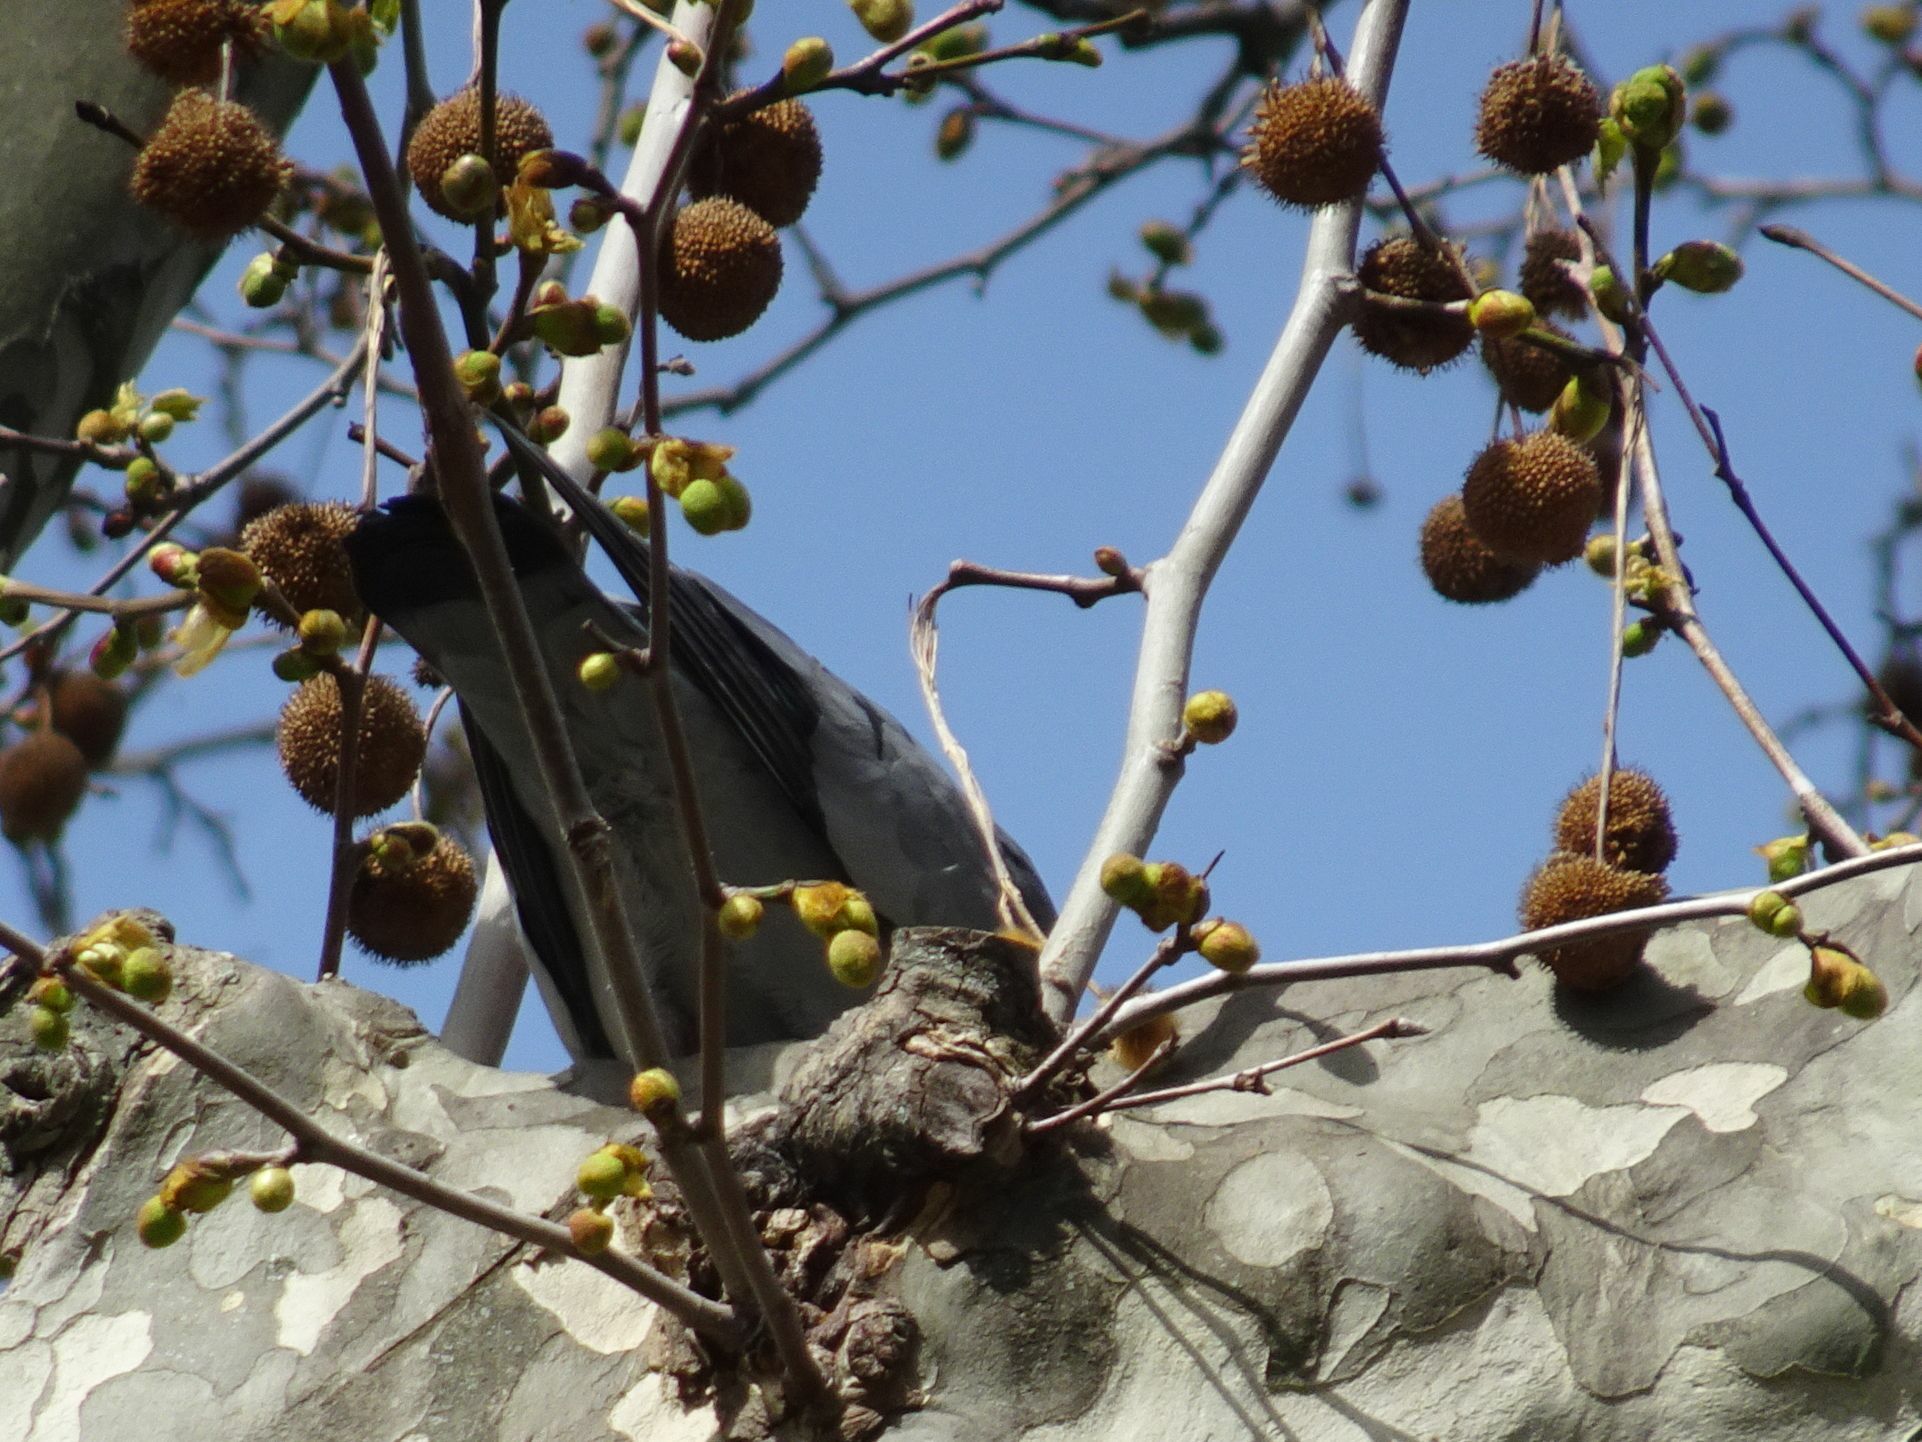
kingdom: Animalia
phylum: Chordata
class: Aves
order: Columbiformes
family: Columbidae
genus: Columba
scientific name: Columba oenas
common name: Stock dove
